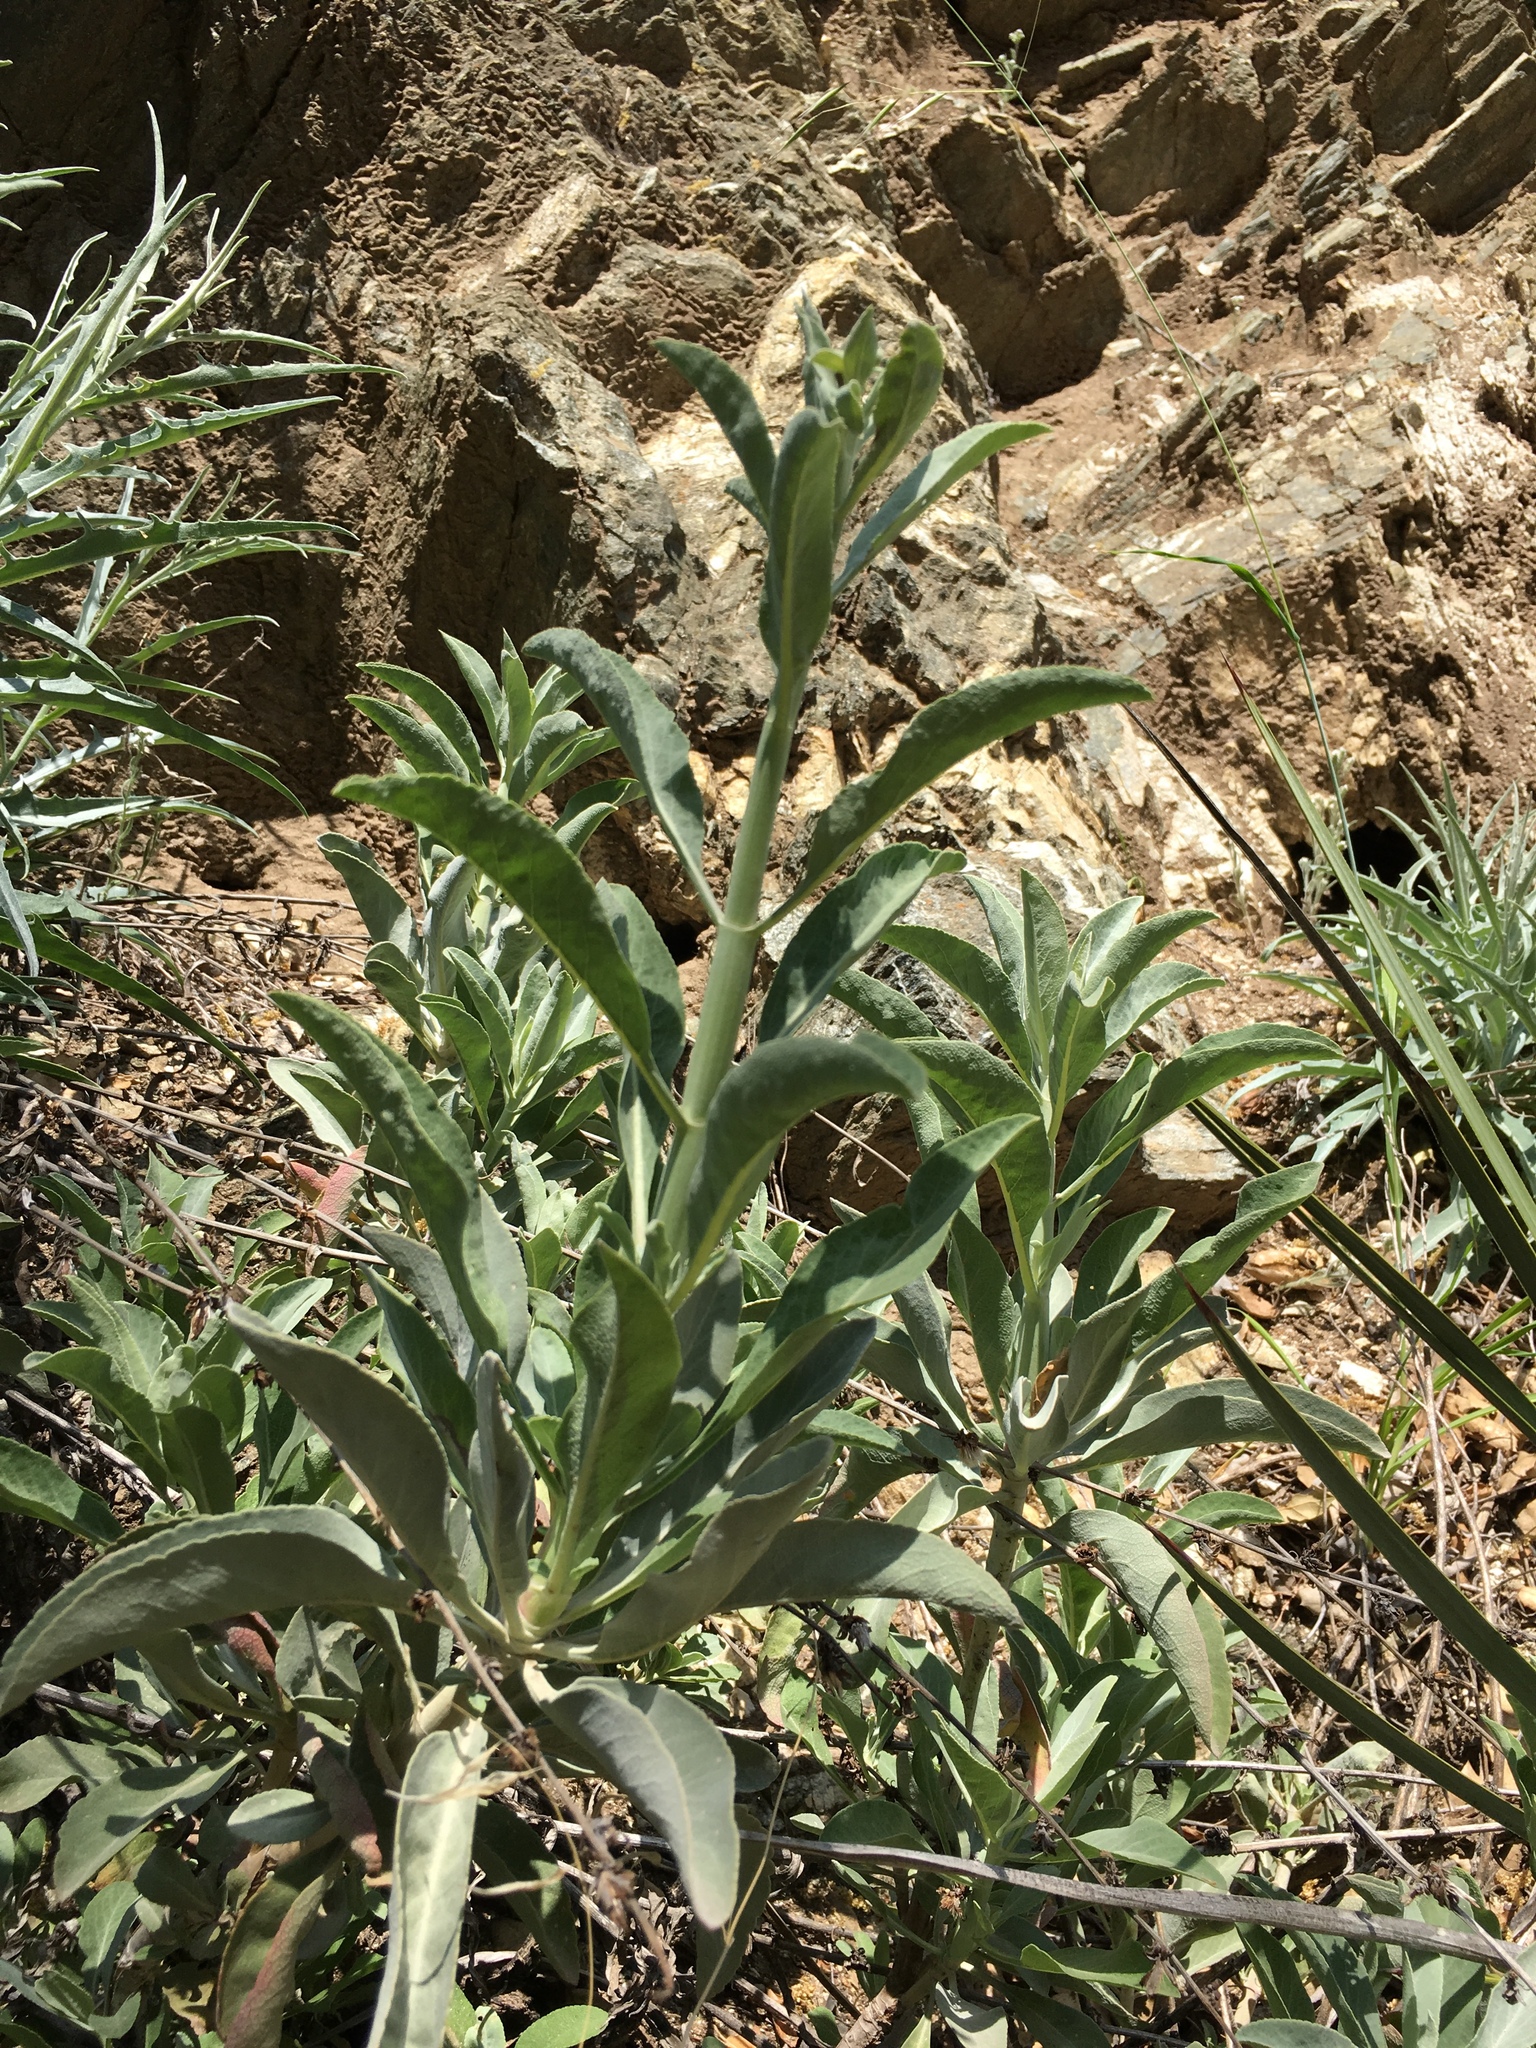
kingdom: Plantae
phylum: Tracheophyta
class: Magnoliopsida
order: Lamiales
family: Lamiaceae
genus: Salvia
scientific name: Salvia apiana
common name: White sage
